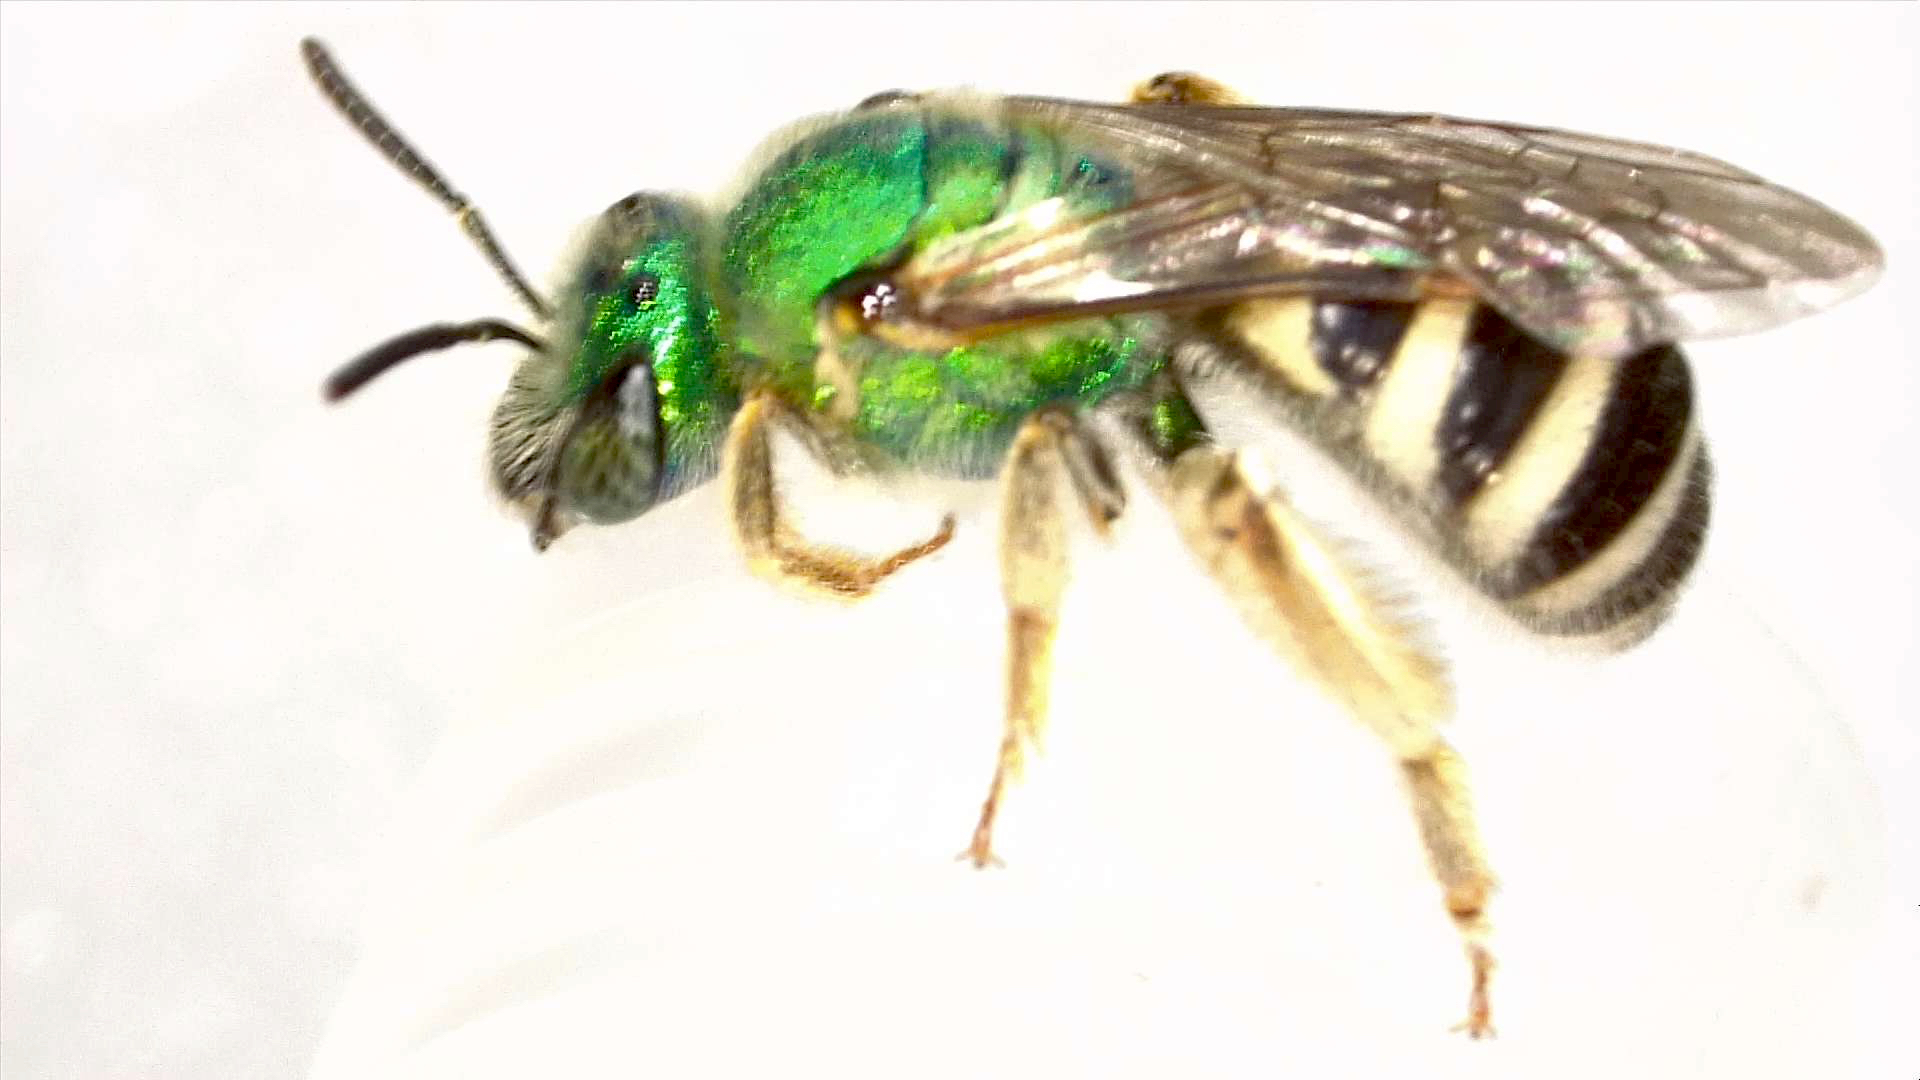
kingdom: Animalia
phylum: Arthropoda
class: Insecta
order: Hymenoptera
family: Halictidae
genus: Agapostemon
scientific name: Agapostemon melliventris
